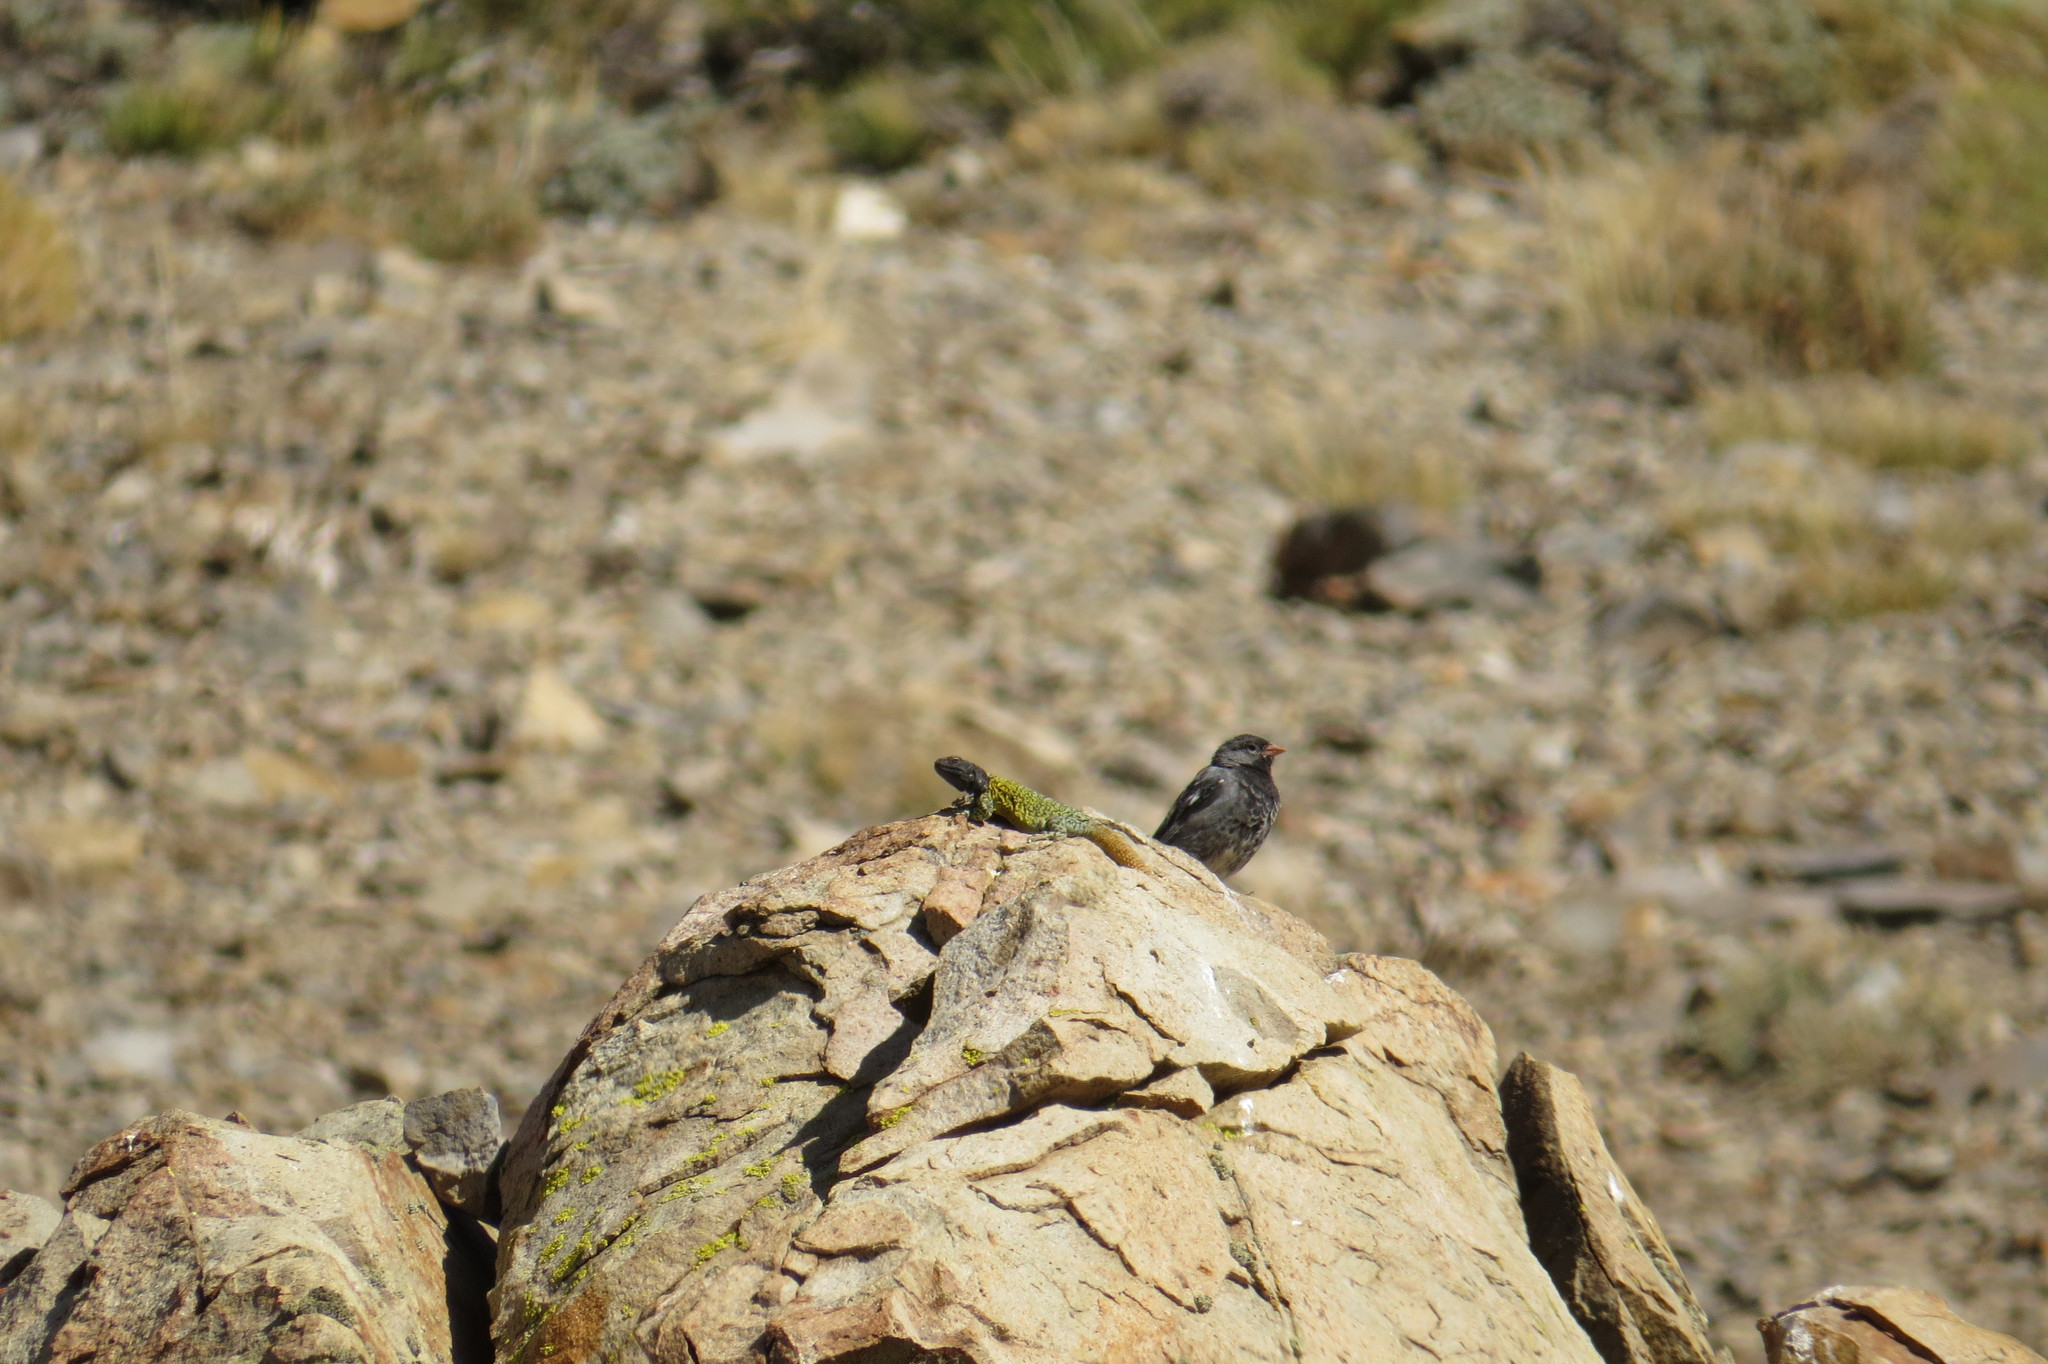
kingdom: Animalia
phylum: Chordata
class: Squamata
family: Liolaemidae
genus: Phymaturus
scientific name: Phymaturus verdugo
